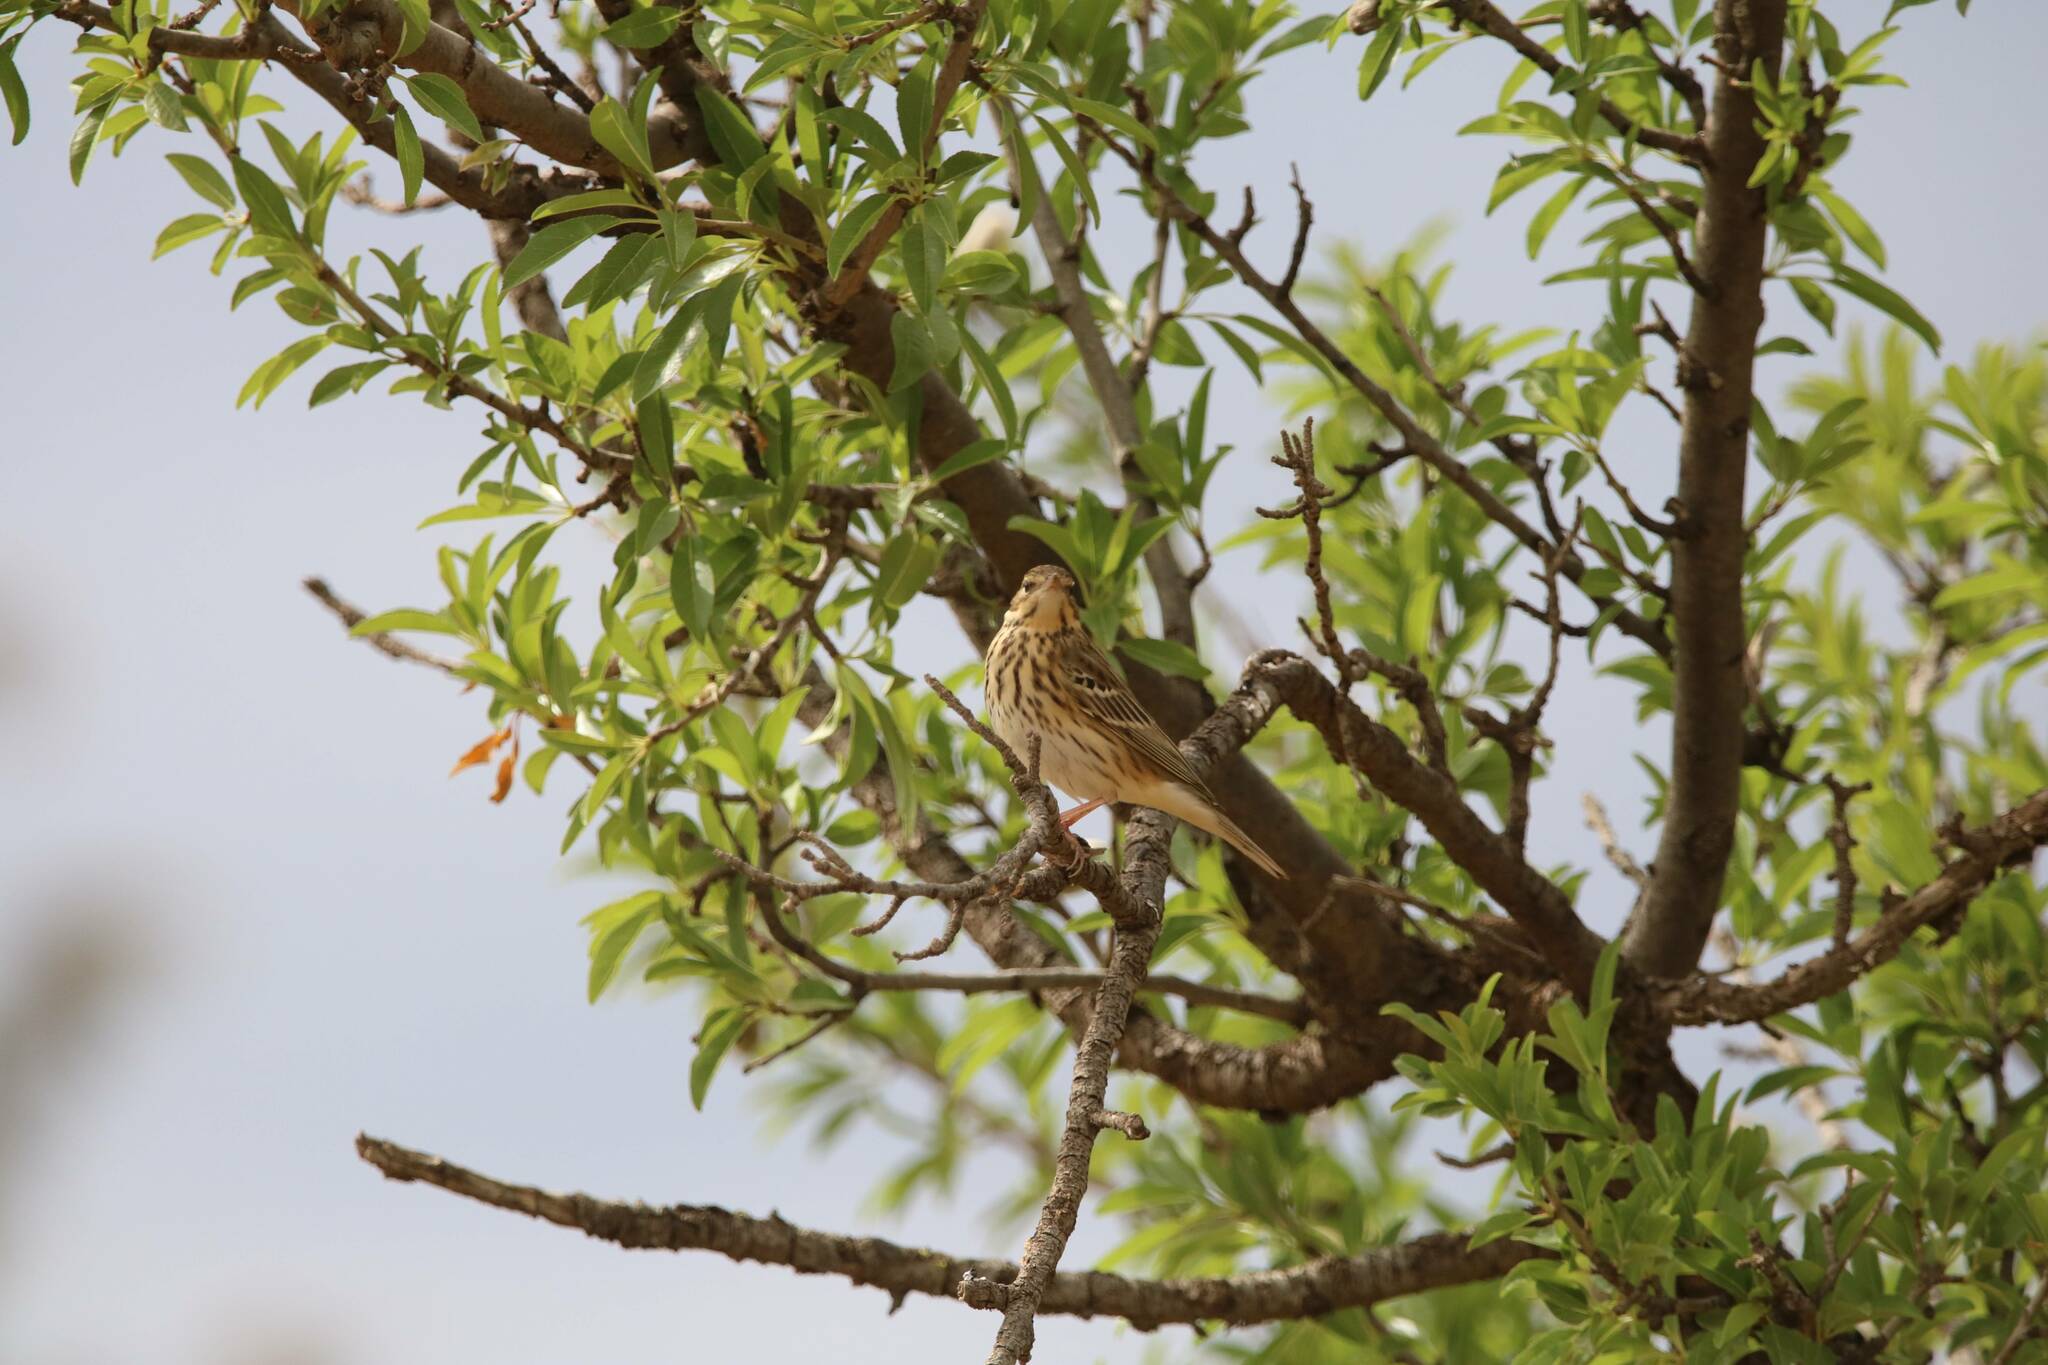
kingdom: Animalia
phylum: Chordata
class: Aves
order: Passeriformes
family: Motacillidae
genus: Anthus
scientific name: Anthus trivialis
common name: Tree pipit
